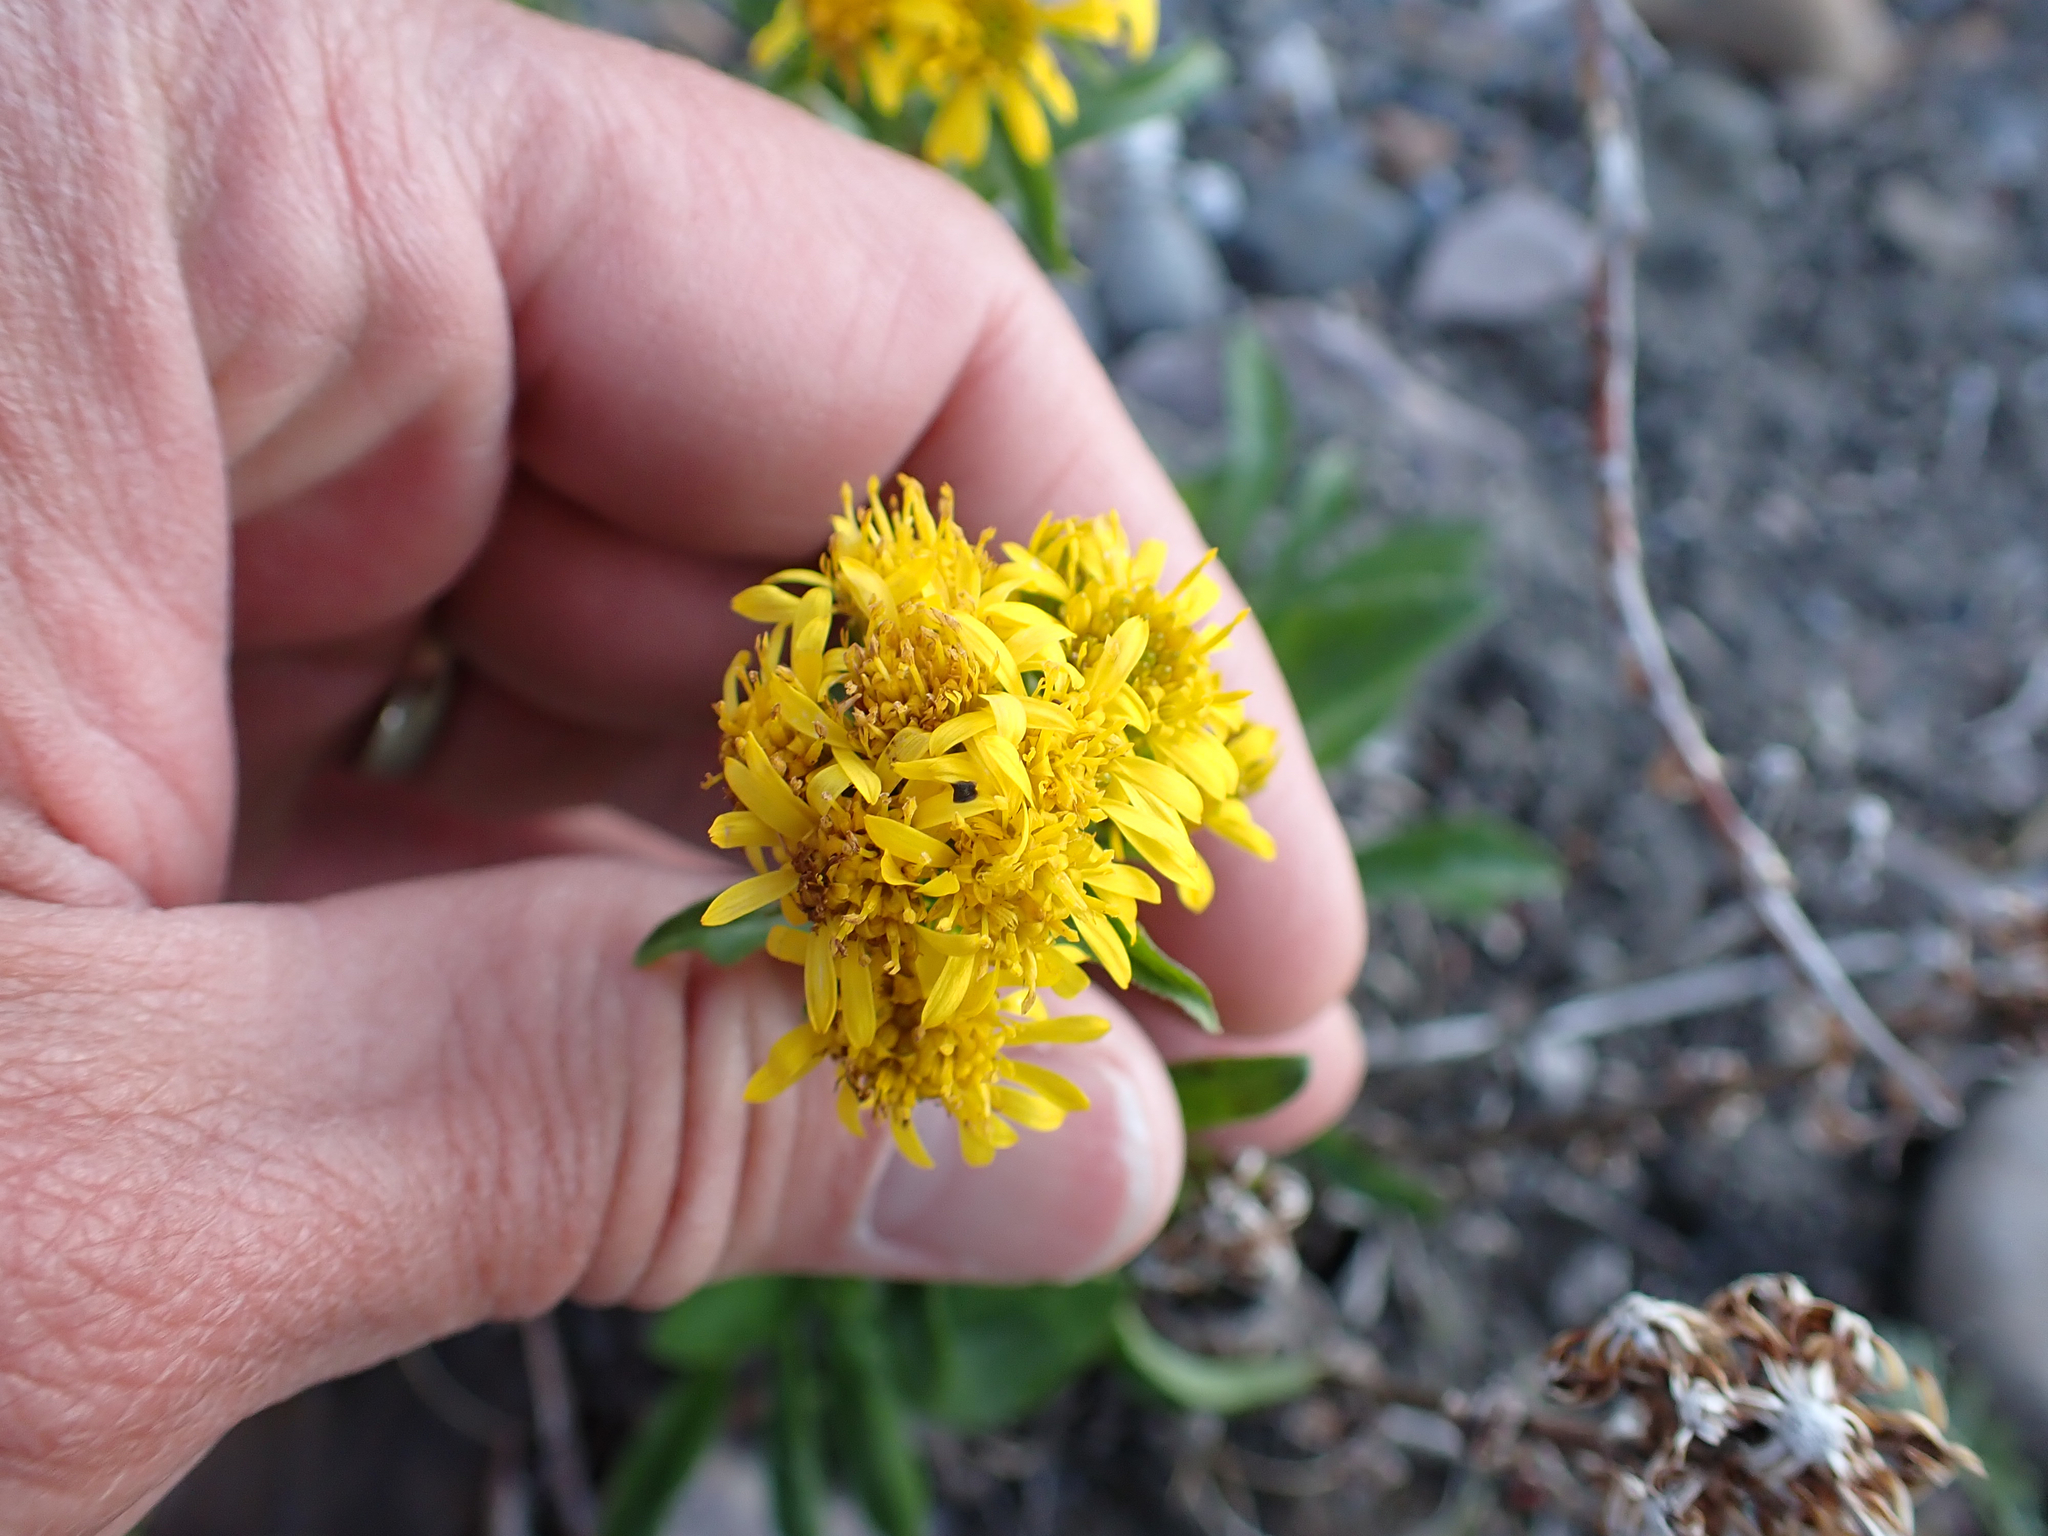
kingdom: Plantae
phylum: Tracheophyta
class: Magnoliopsida
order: Asterales
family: Asteraceae
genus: Solidago
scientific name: Solidago multiradiata
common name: Northern goldenrod
